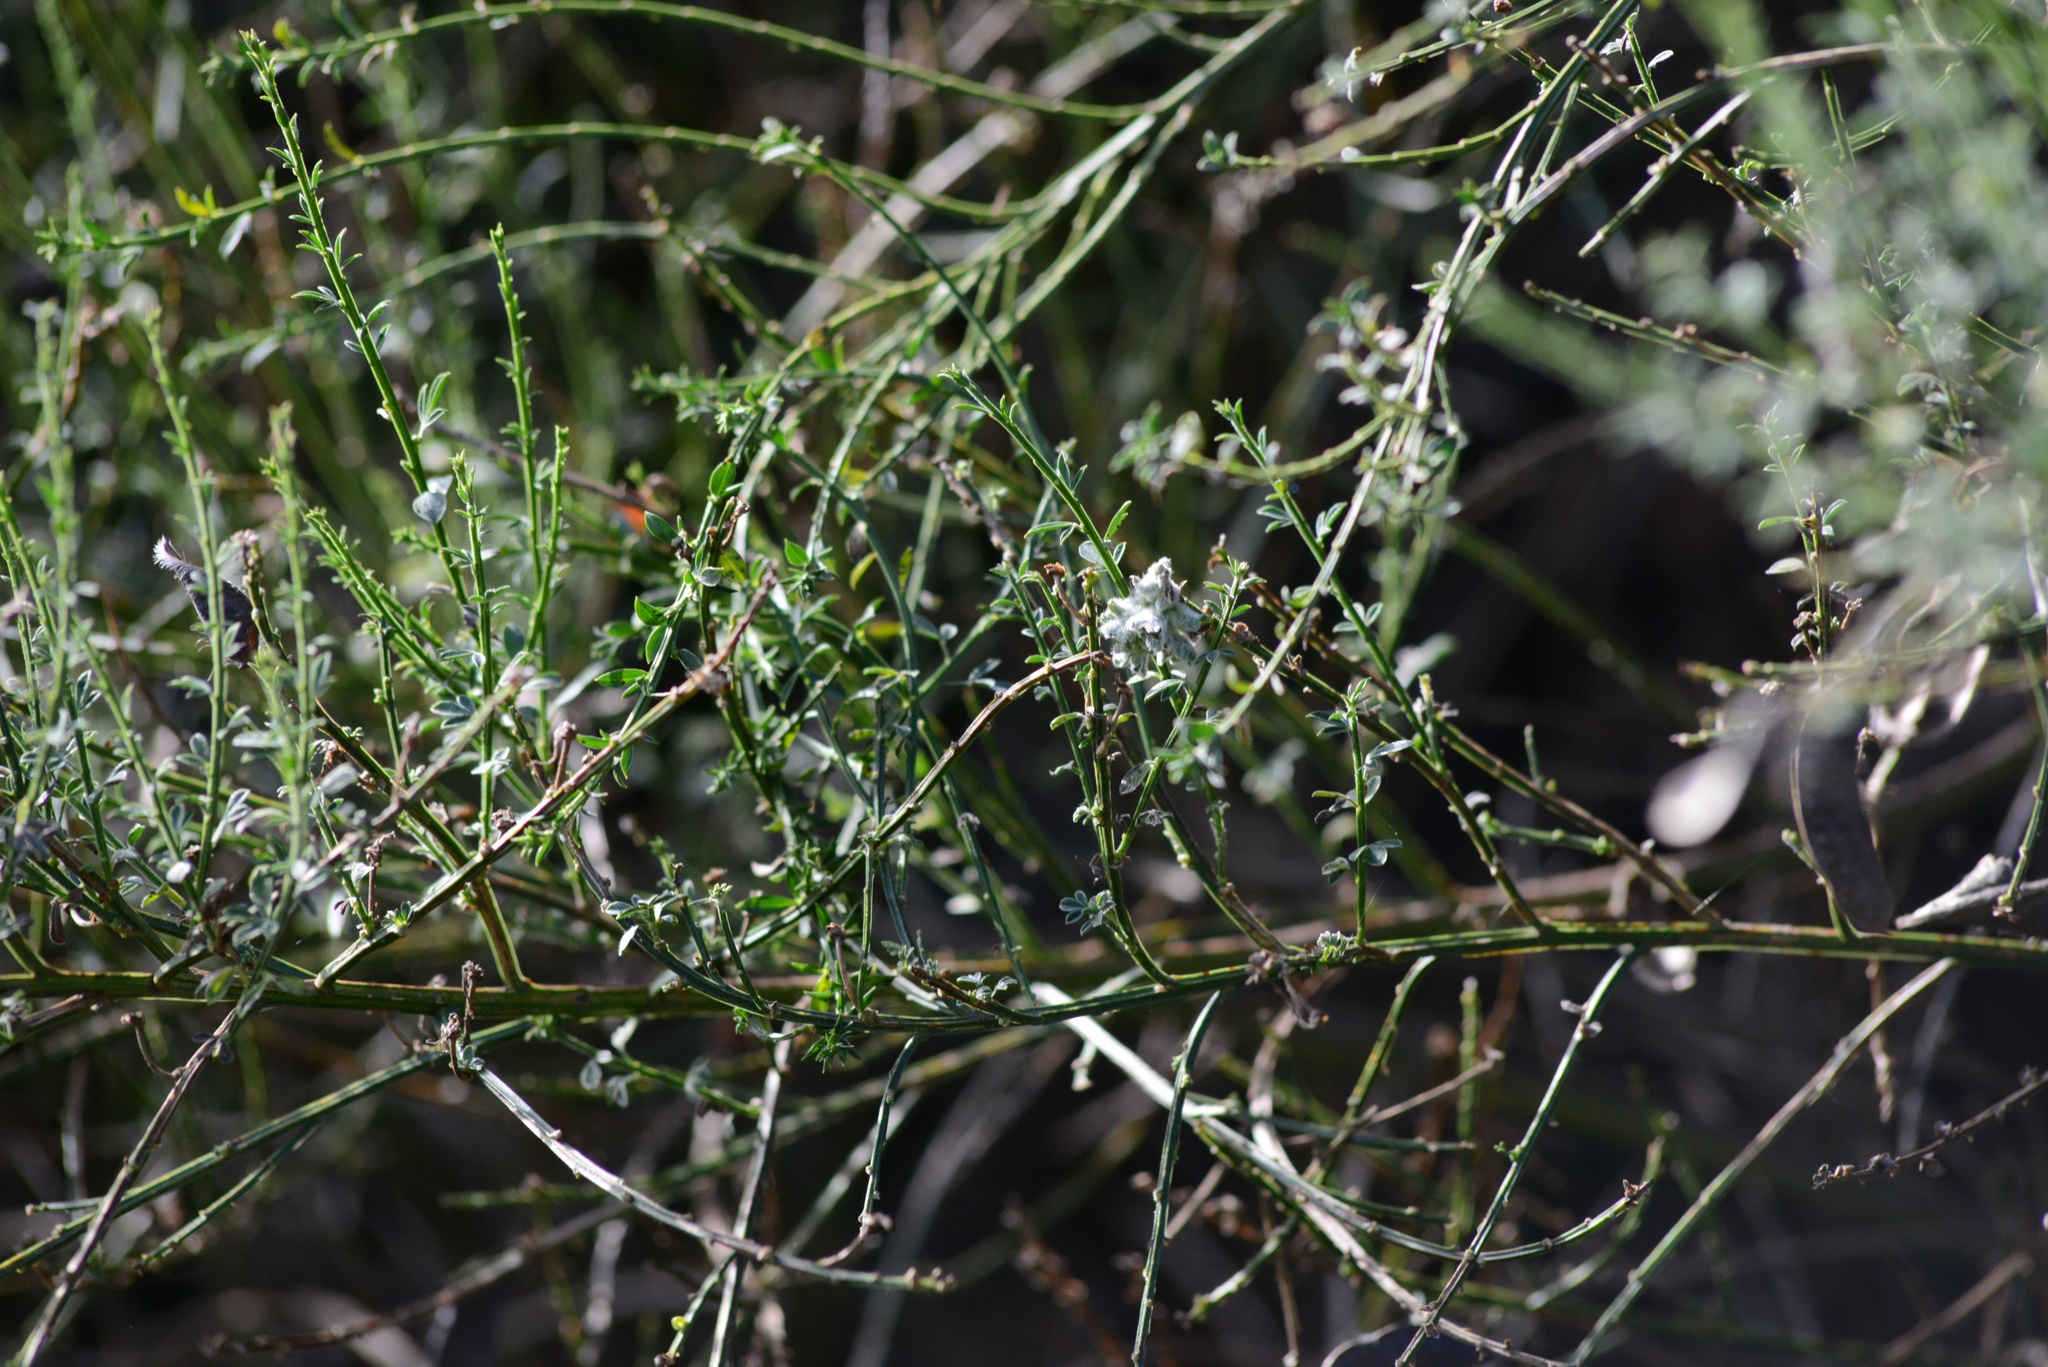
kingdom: Plantae
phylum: Tracheophyta
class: Magnoliopsida
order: Fabales
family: Fabaceae
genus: Cytisus
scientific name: Cytisus scoparius
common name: Scotch broom
